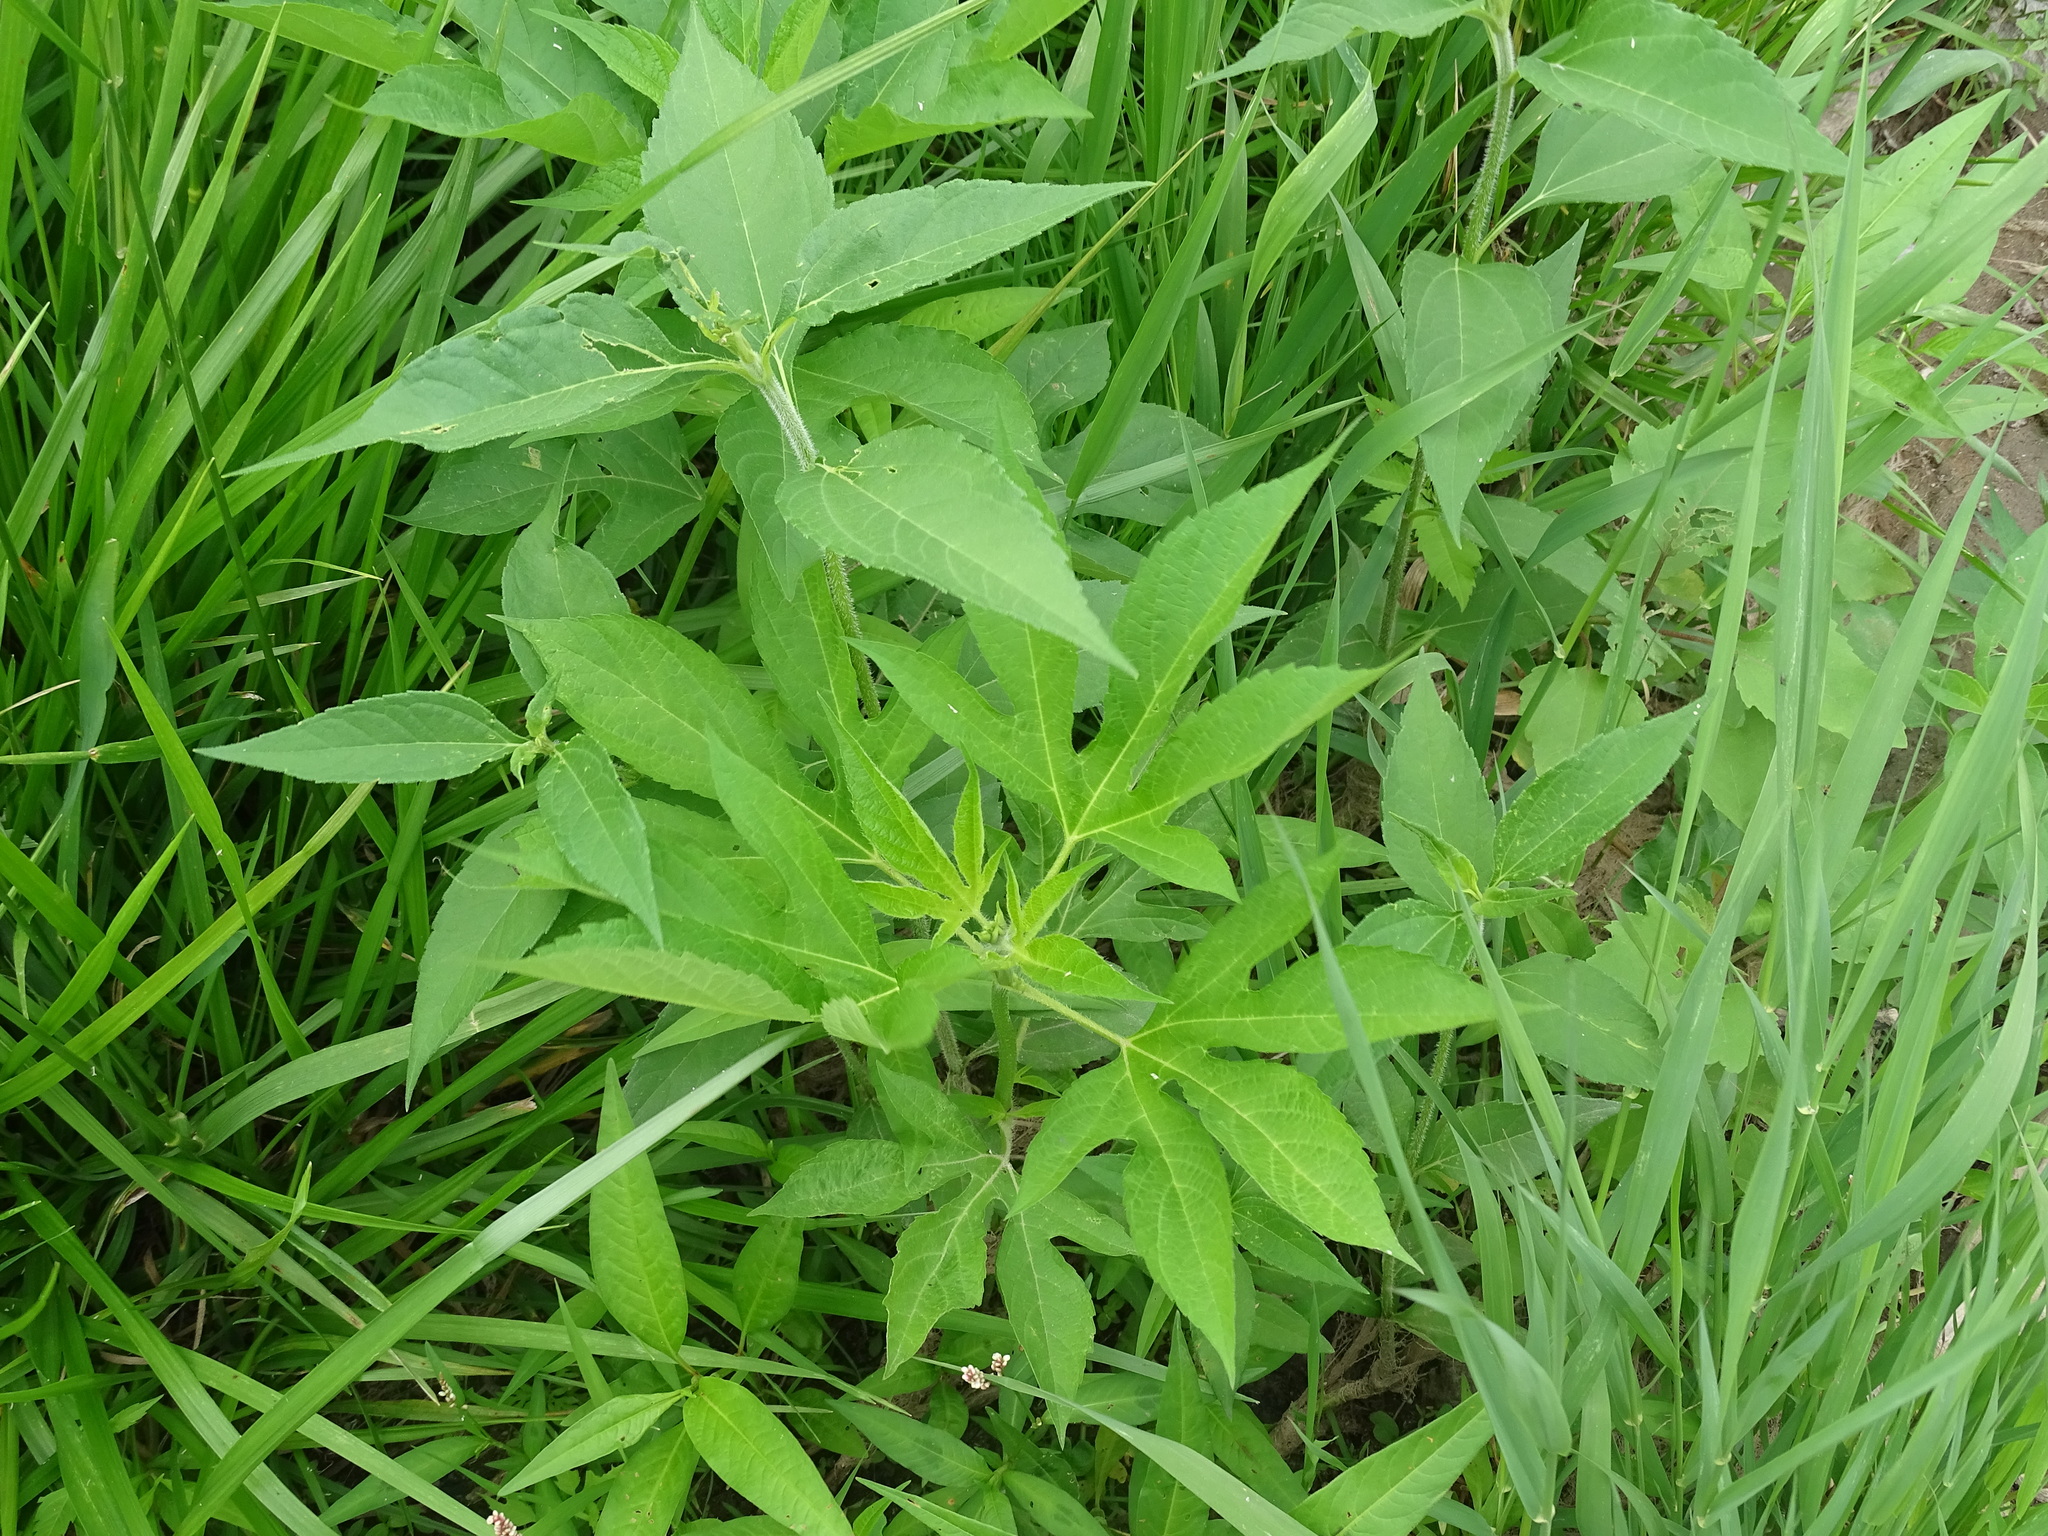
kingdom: Plantae
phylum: Tracheophyta
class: Magnoliopsida
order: Asterales
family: Asteraceae
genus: Ambrosia
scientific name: Ambrosia trifida
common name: Giant ragweed
